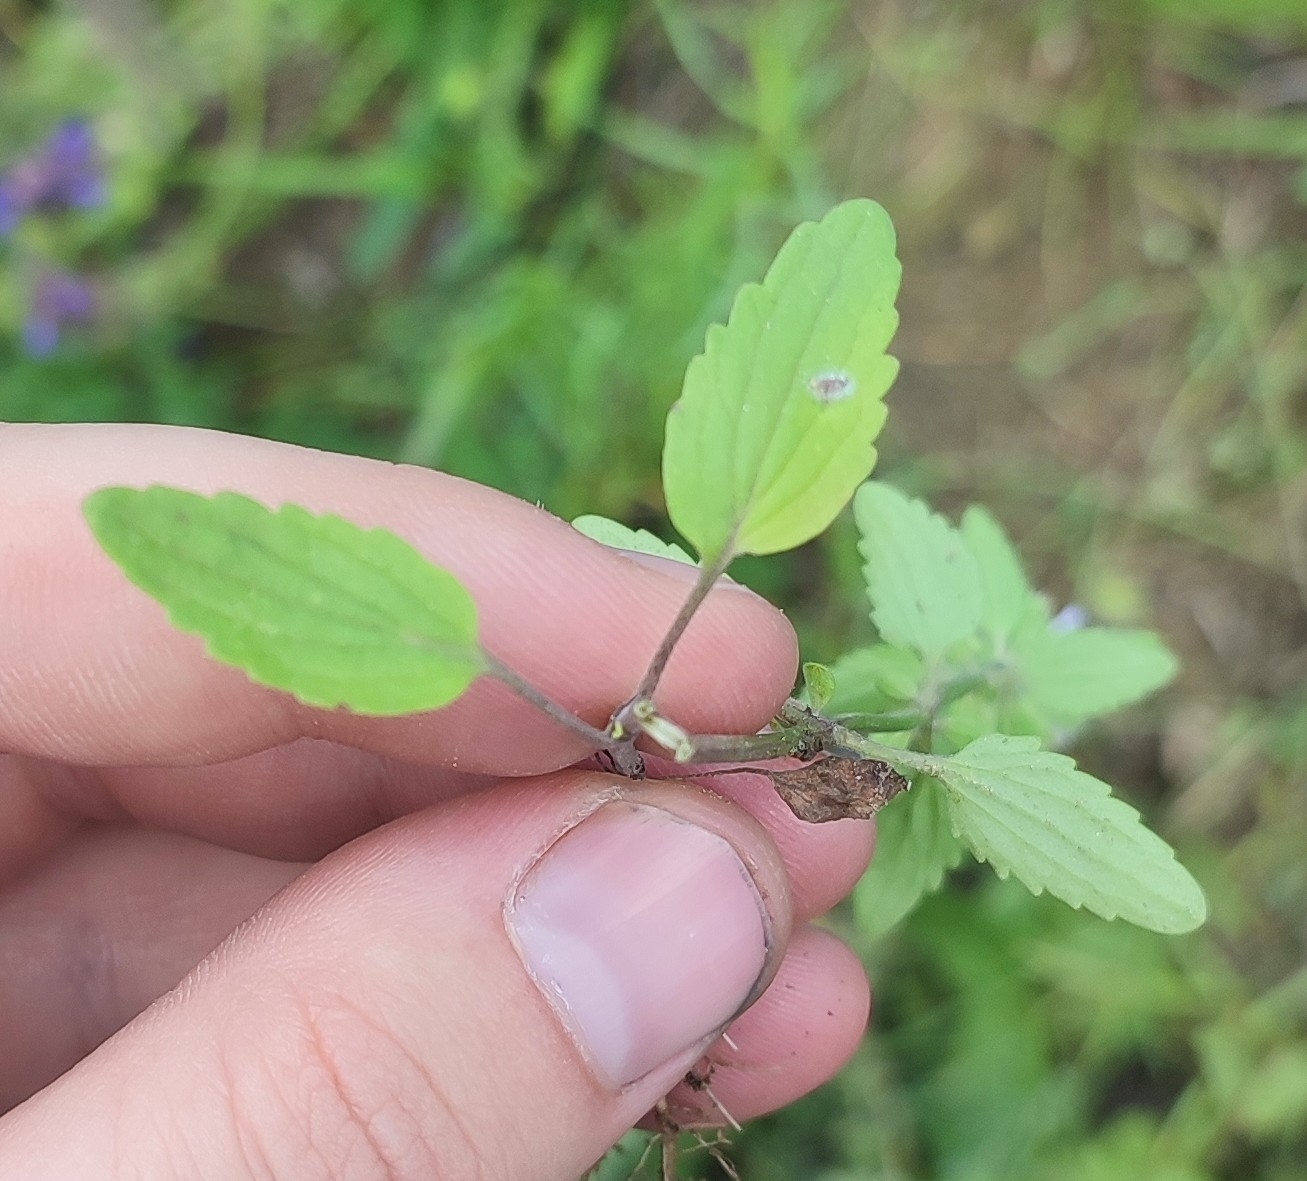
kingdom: Plantae
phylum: Tracheophyta
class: Magnoliopsida
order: Lamiales
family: Lamiaceae
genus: Dracocephalum
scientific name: Dracocephalum thymiflorum
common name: Thymeleaf dragonhead
